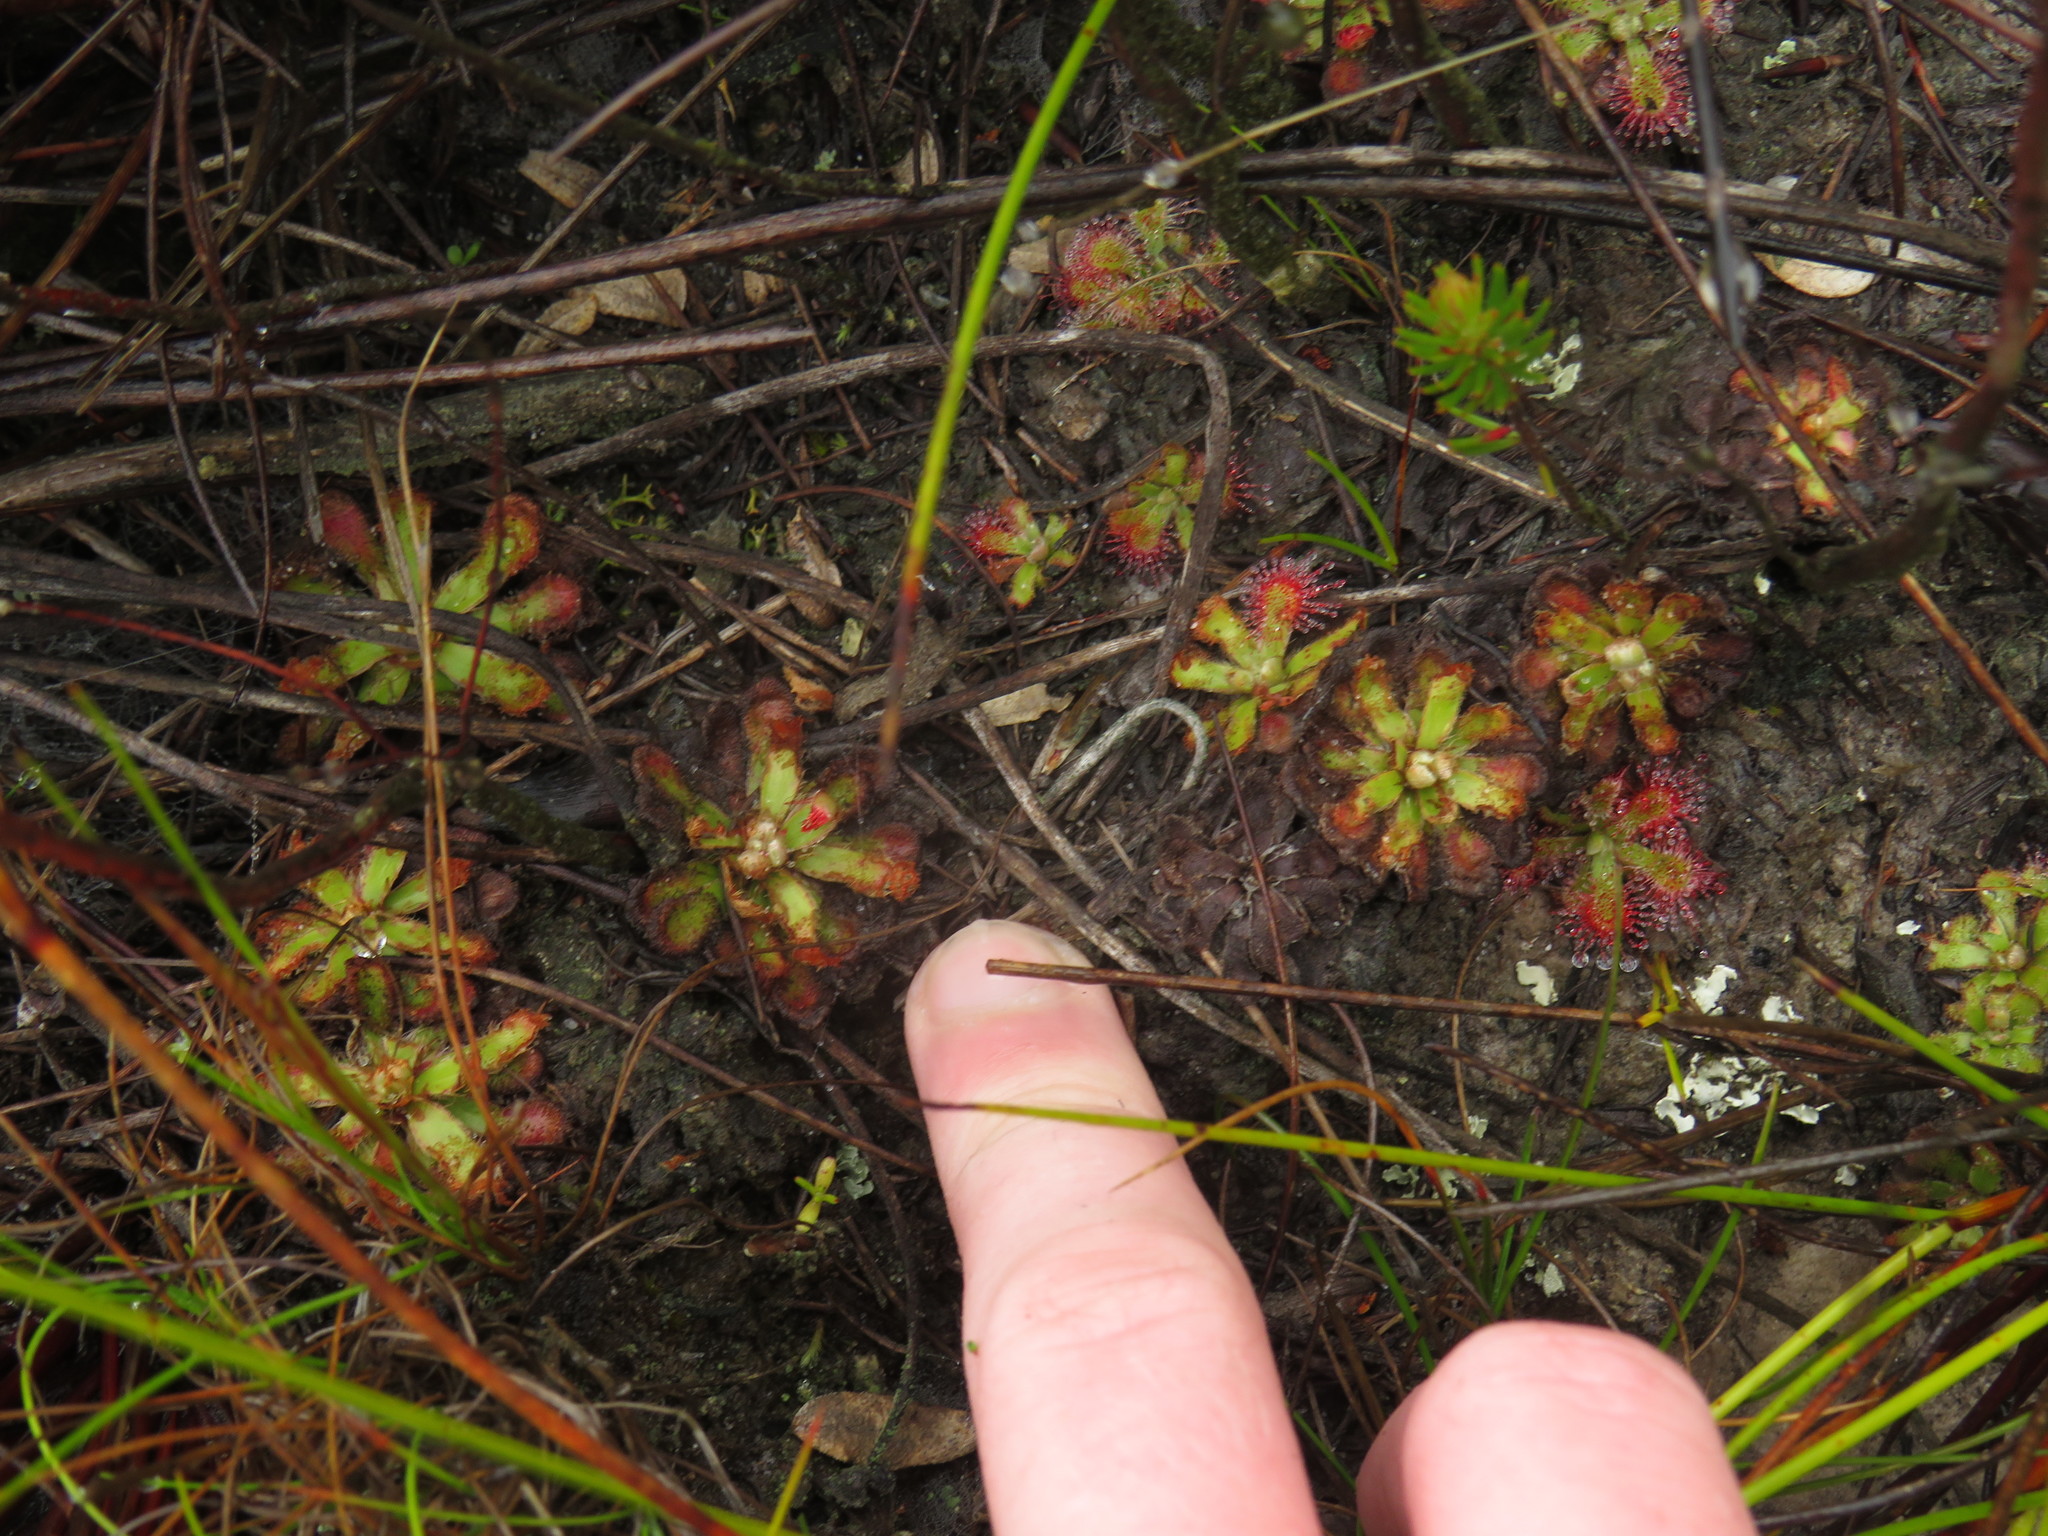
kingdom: Plantae
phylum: Tracheophyta
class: Magnoliopsida
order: Caryophyllales
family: Droseraceae
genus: Drosera
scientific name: Drosera aliciae
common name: Alice sundew
